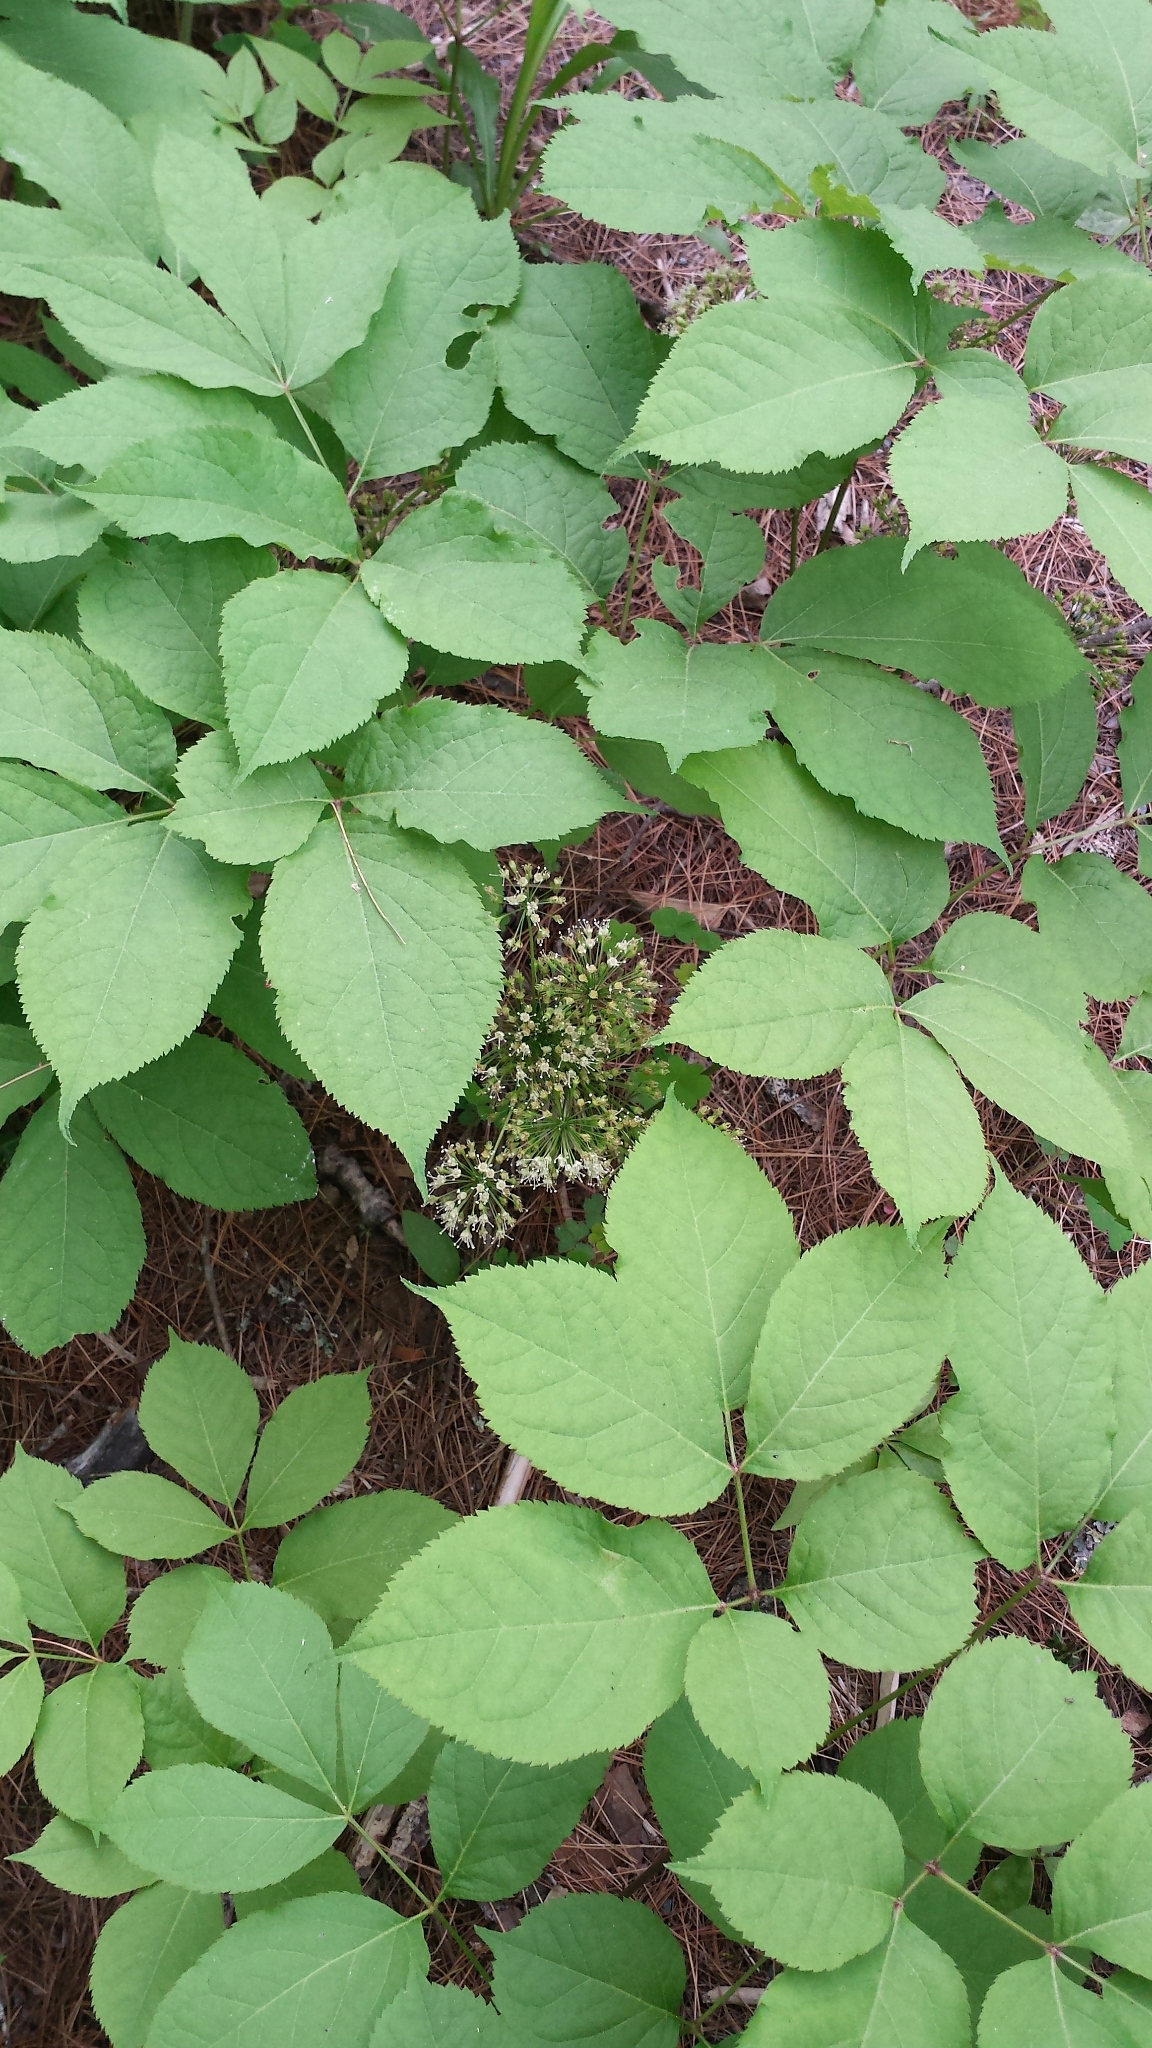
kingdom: Plantae
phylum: Tracheophyta
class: Magnoliopsida
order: Apiales
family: Araliaceae
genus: Aralia
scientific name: Aralia nudicaulis
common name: Wild sarsaparilla
